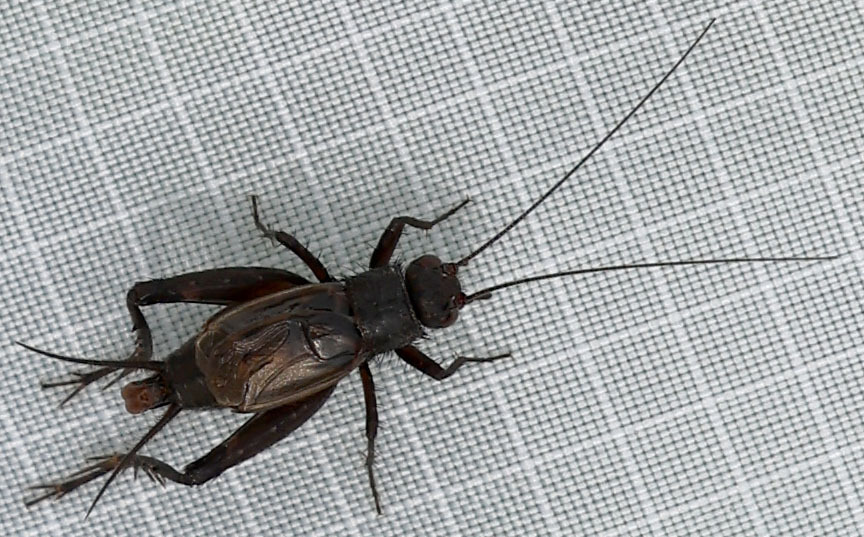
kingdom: Animalia
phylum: Arthropoda
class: Insecta
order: Orthoptera
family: Trigonidiidae
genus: Allonemobius
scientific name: Allonemobius
